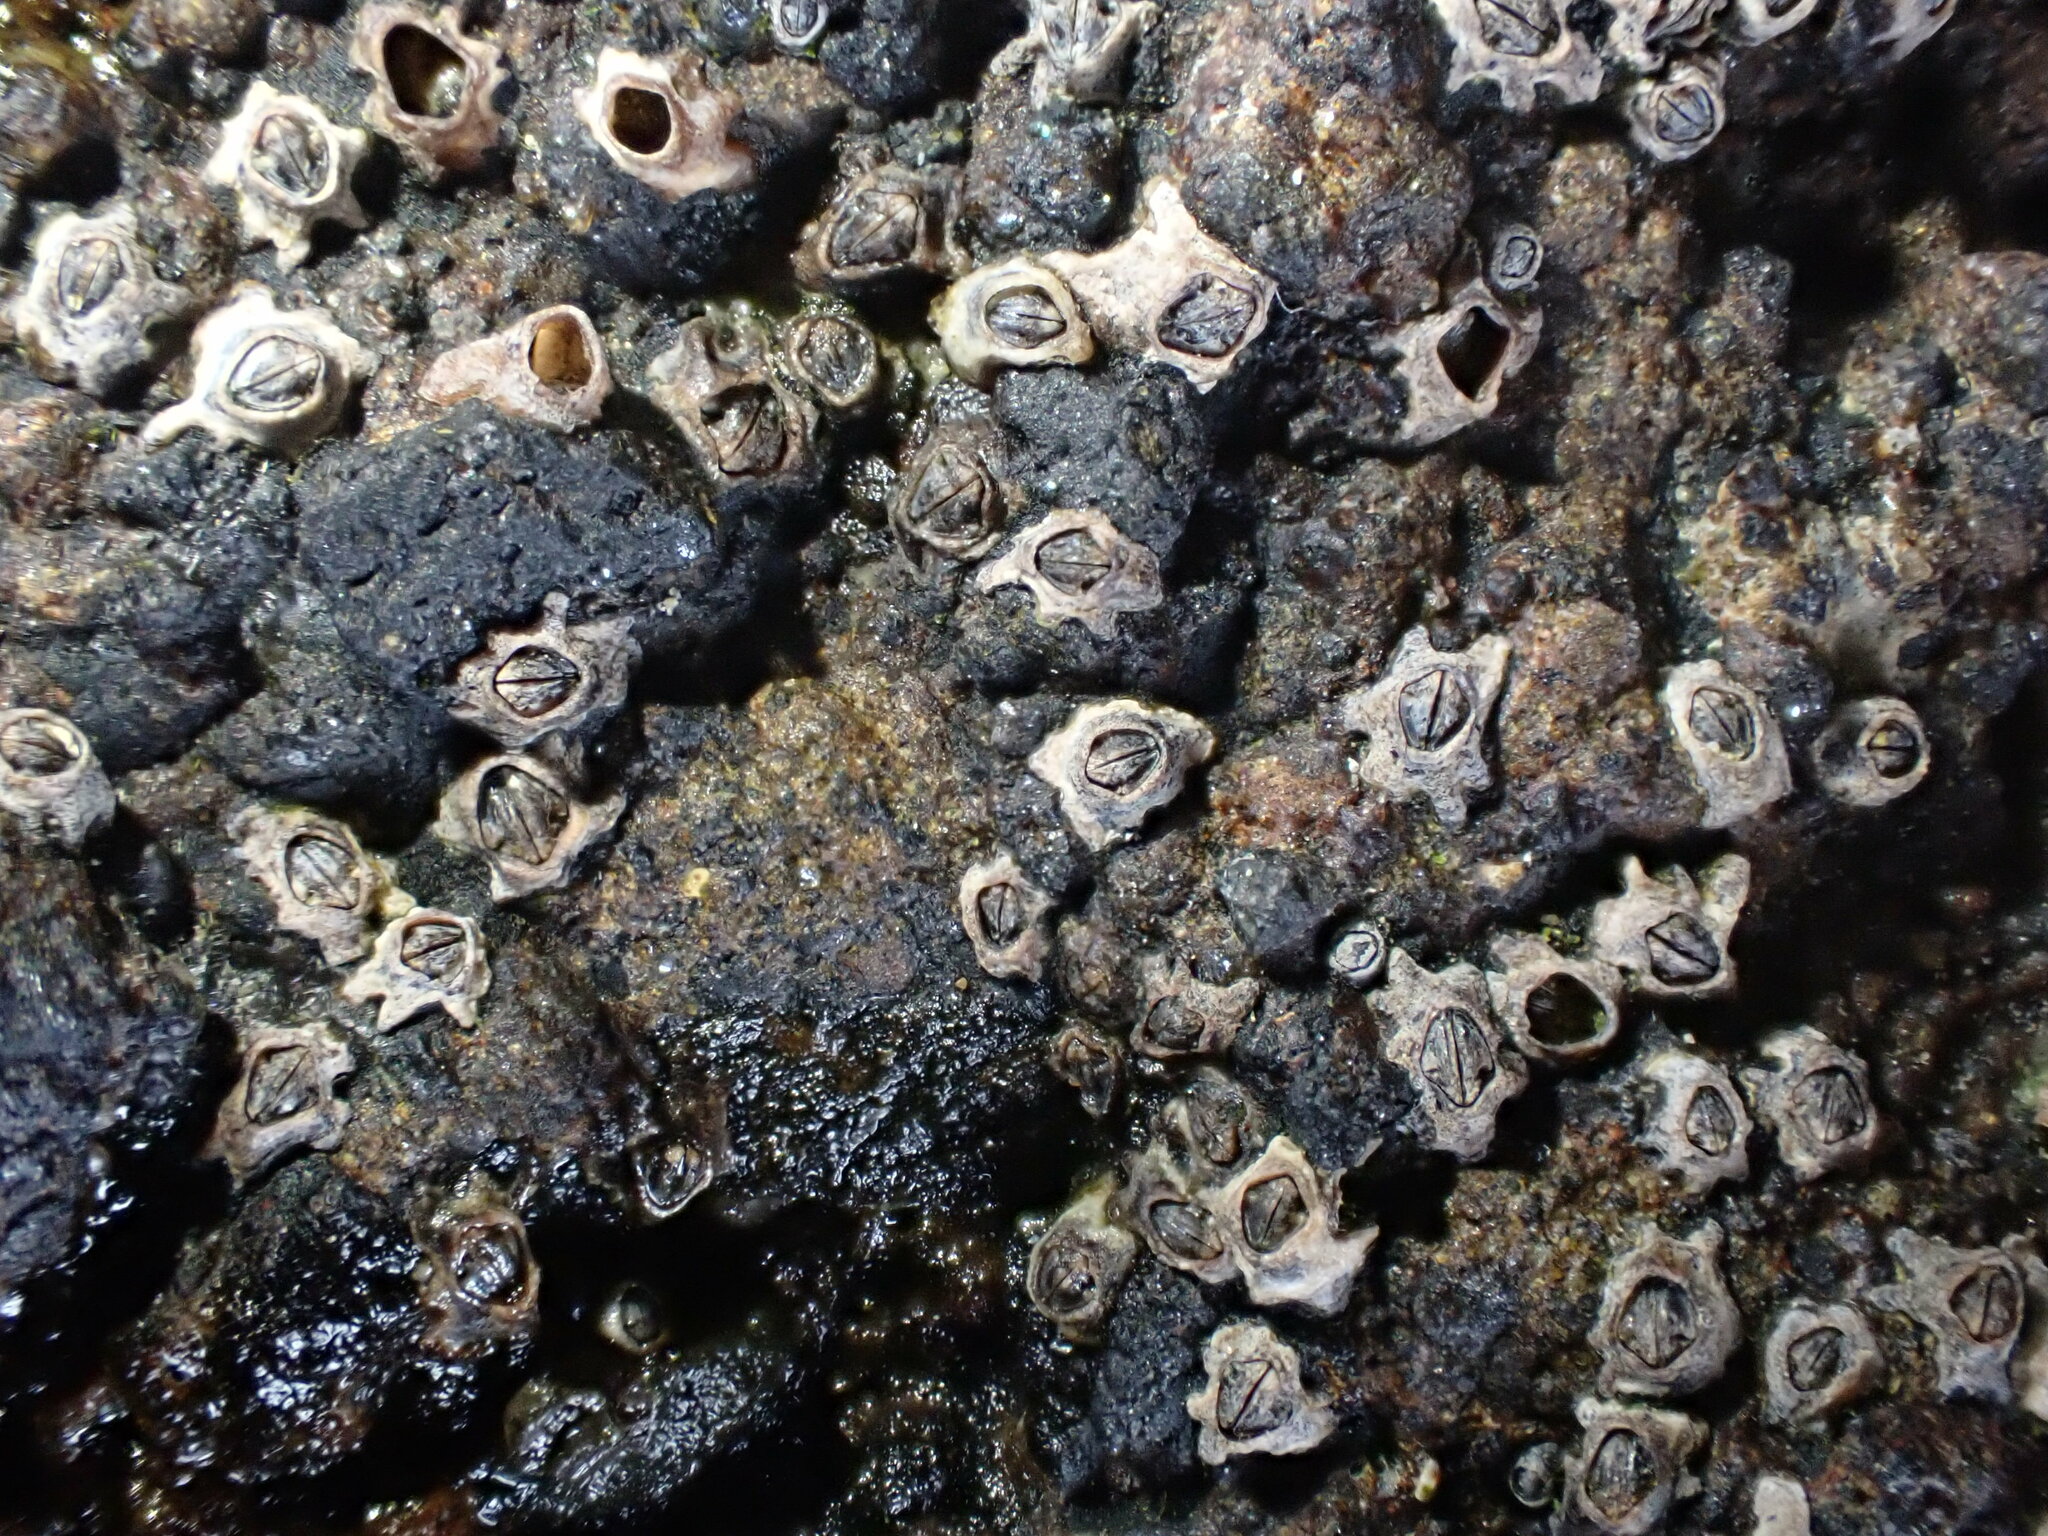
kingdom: Animalia
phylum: Arthropoda
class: Maxillopoda
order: Sessilia
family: Chthamalidae
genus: Chamaesipho
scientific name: Chamaesipho columna
